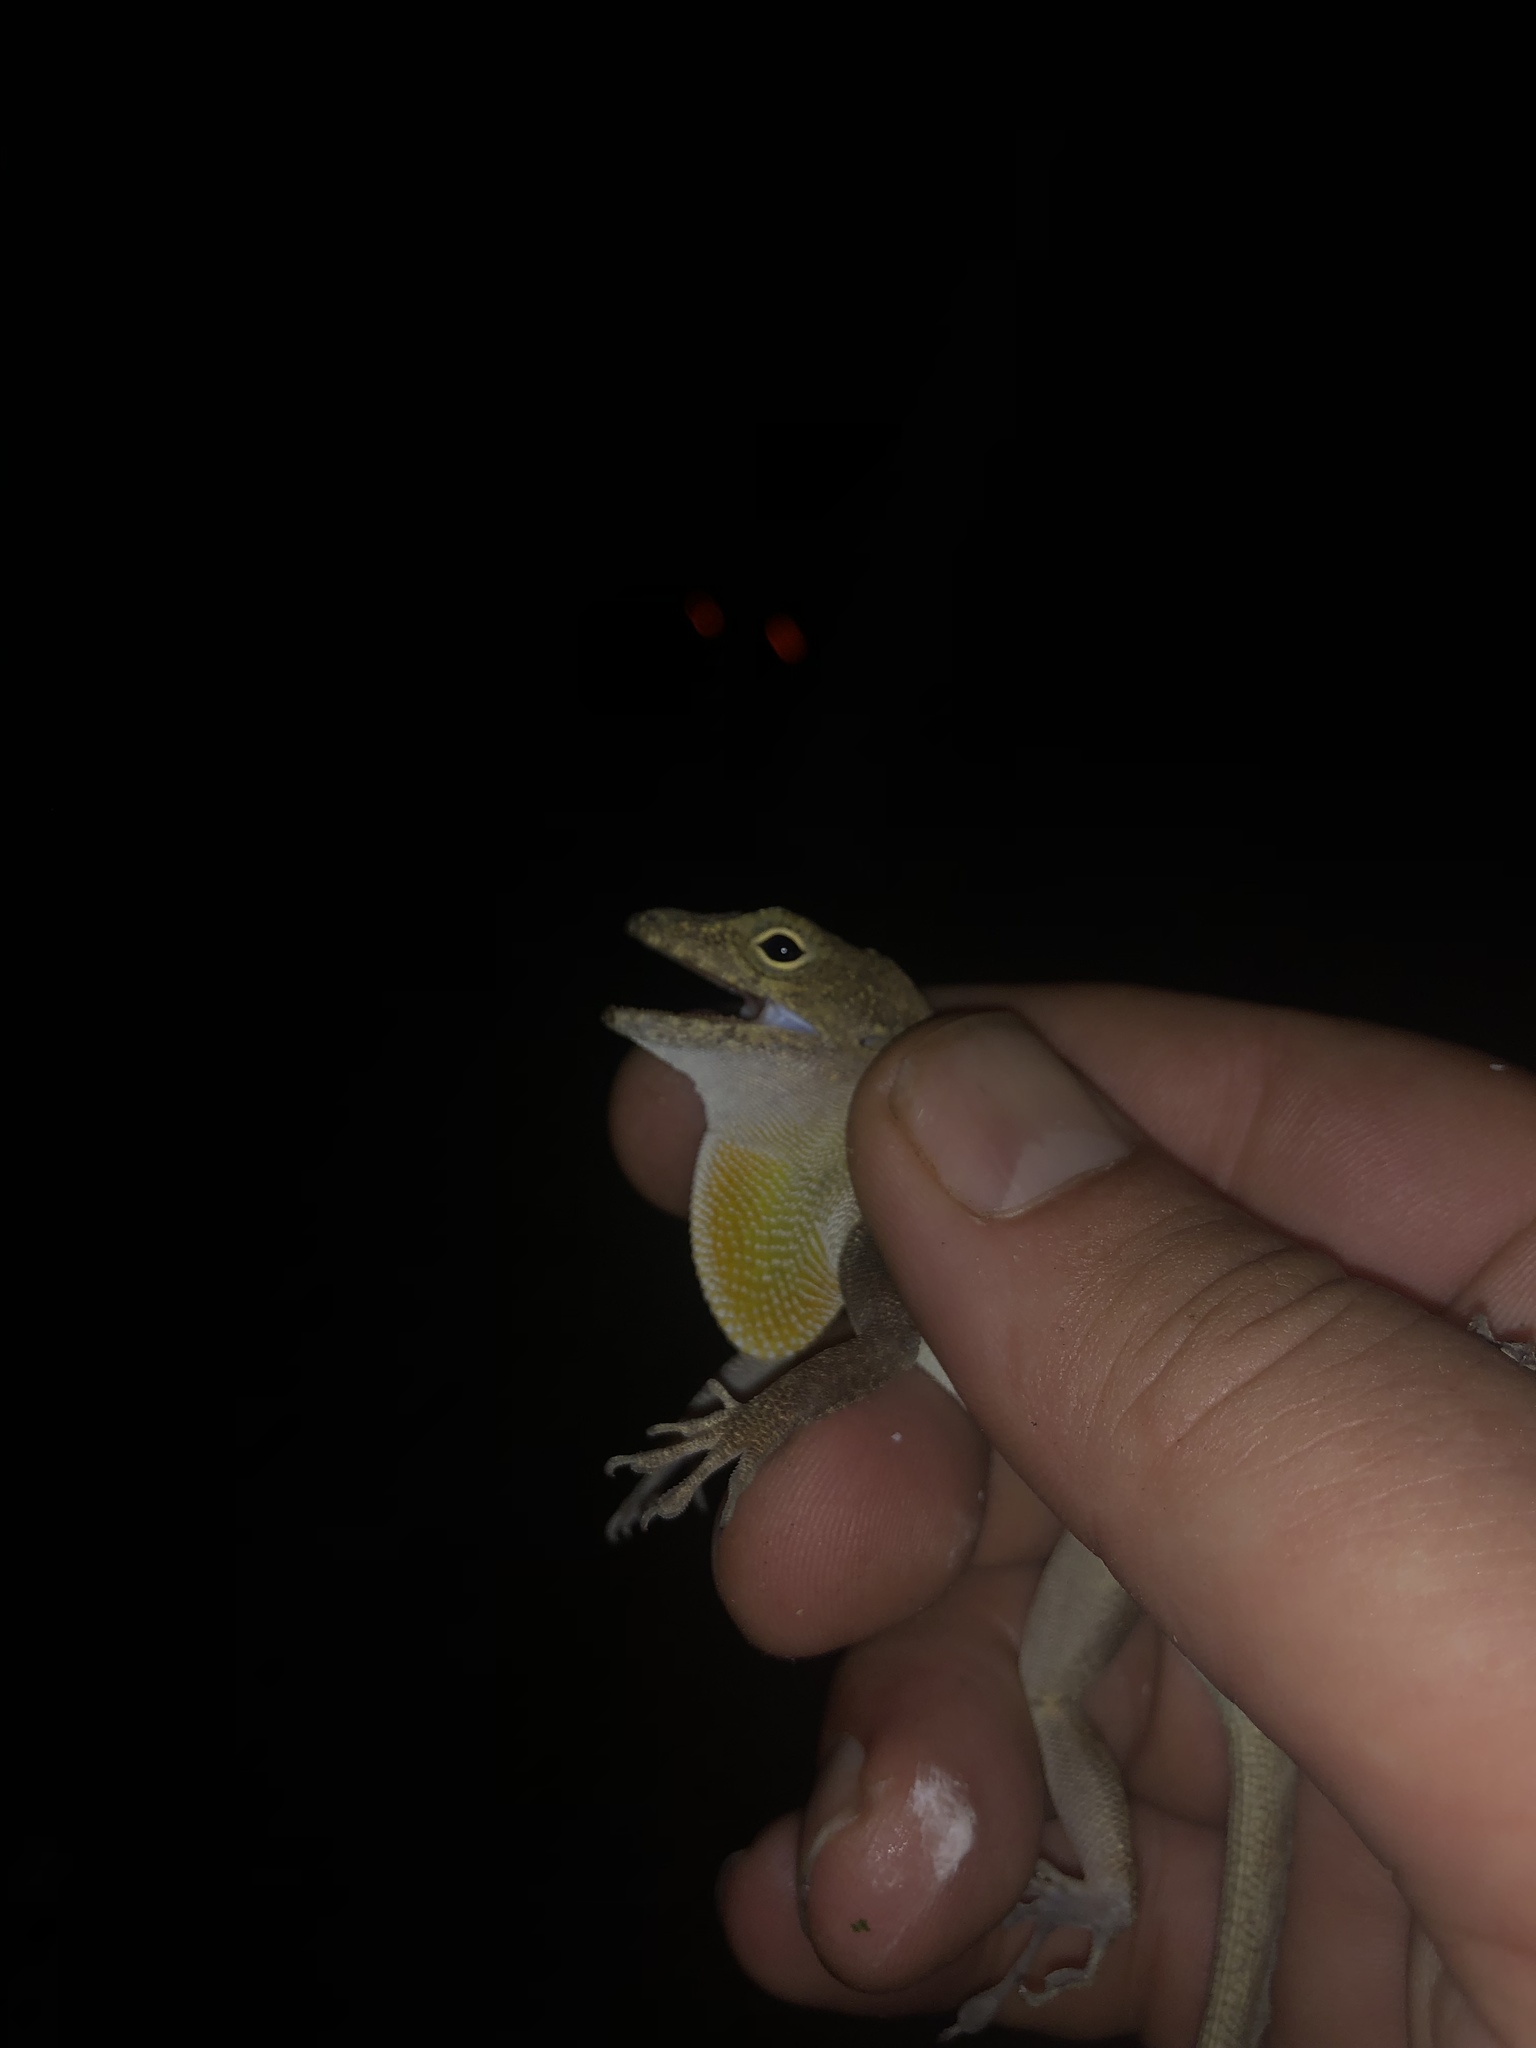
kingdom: Animalia
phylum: Chordata
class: Squamata
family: Dactyloidae
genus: Anolis
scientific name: Anolis cristatellus
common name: Crested anole
